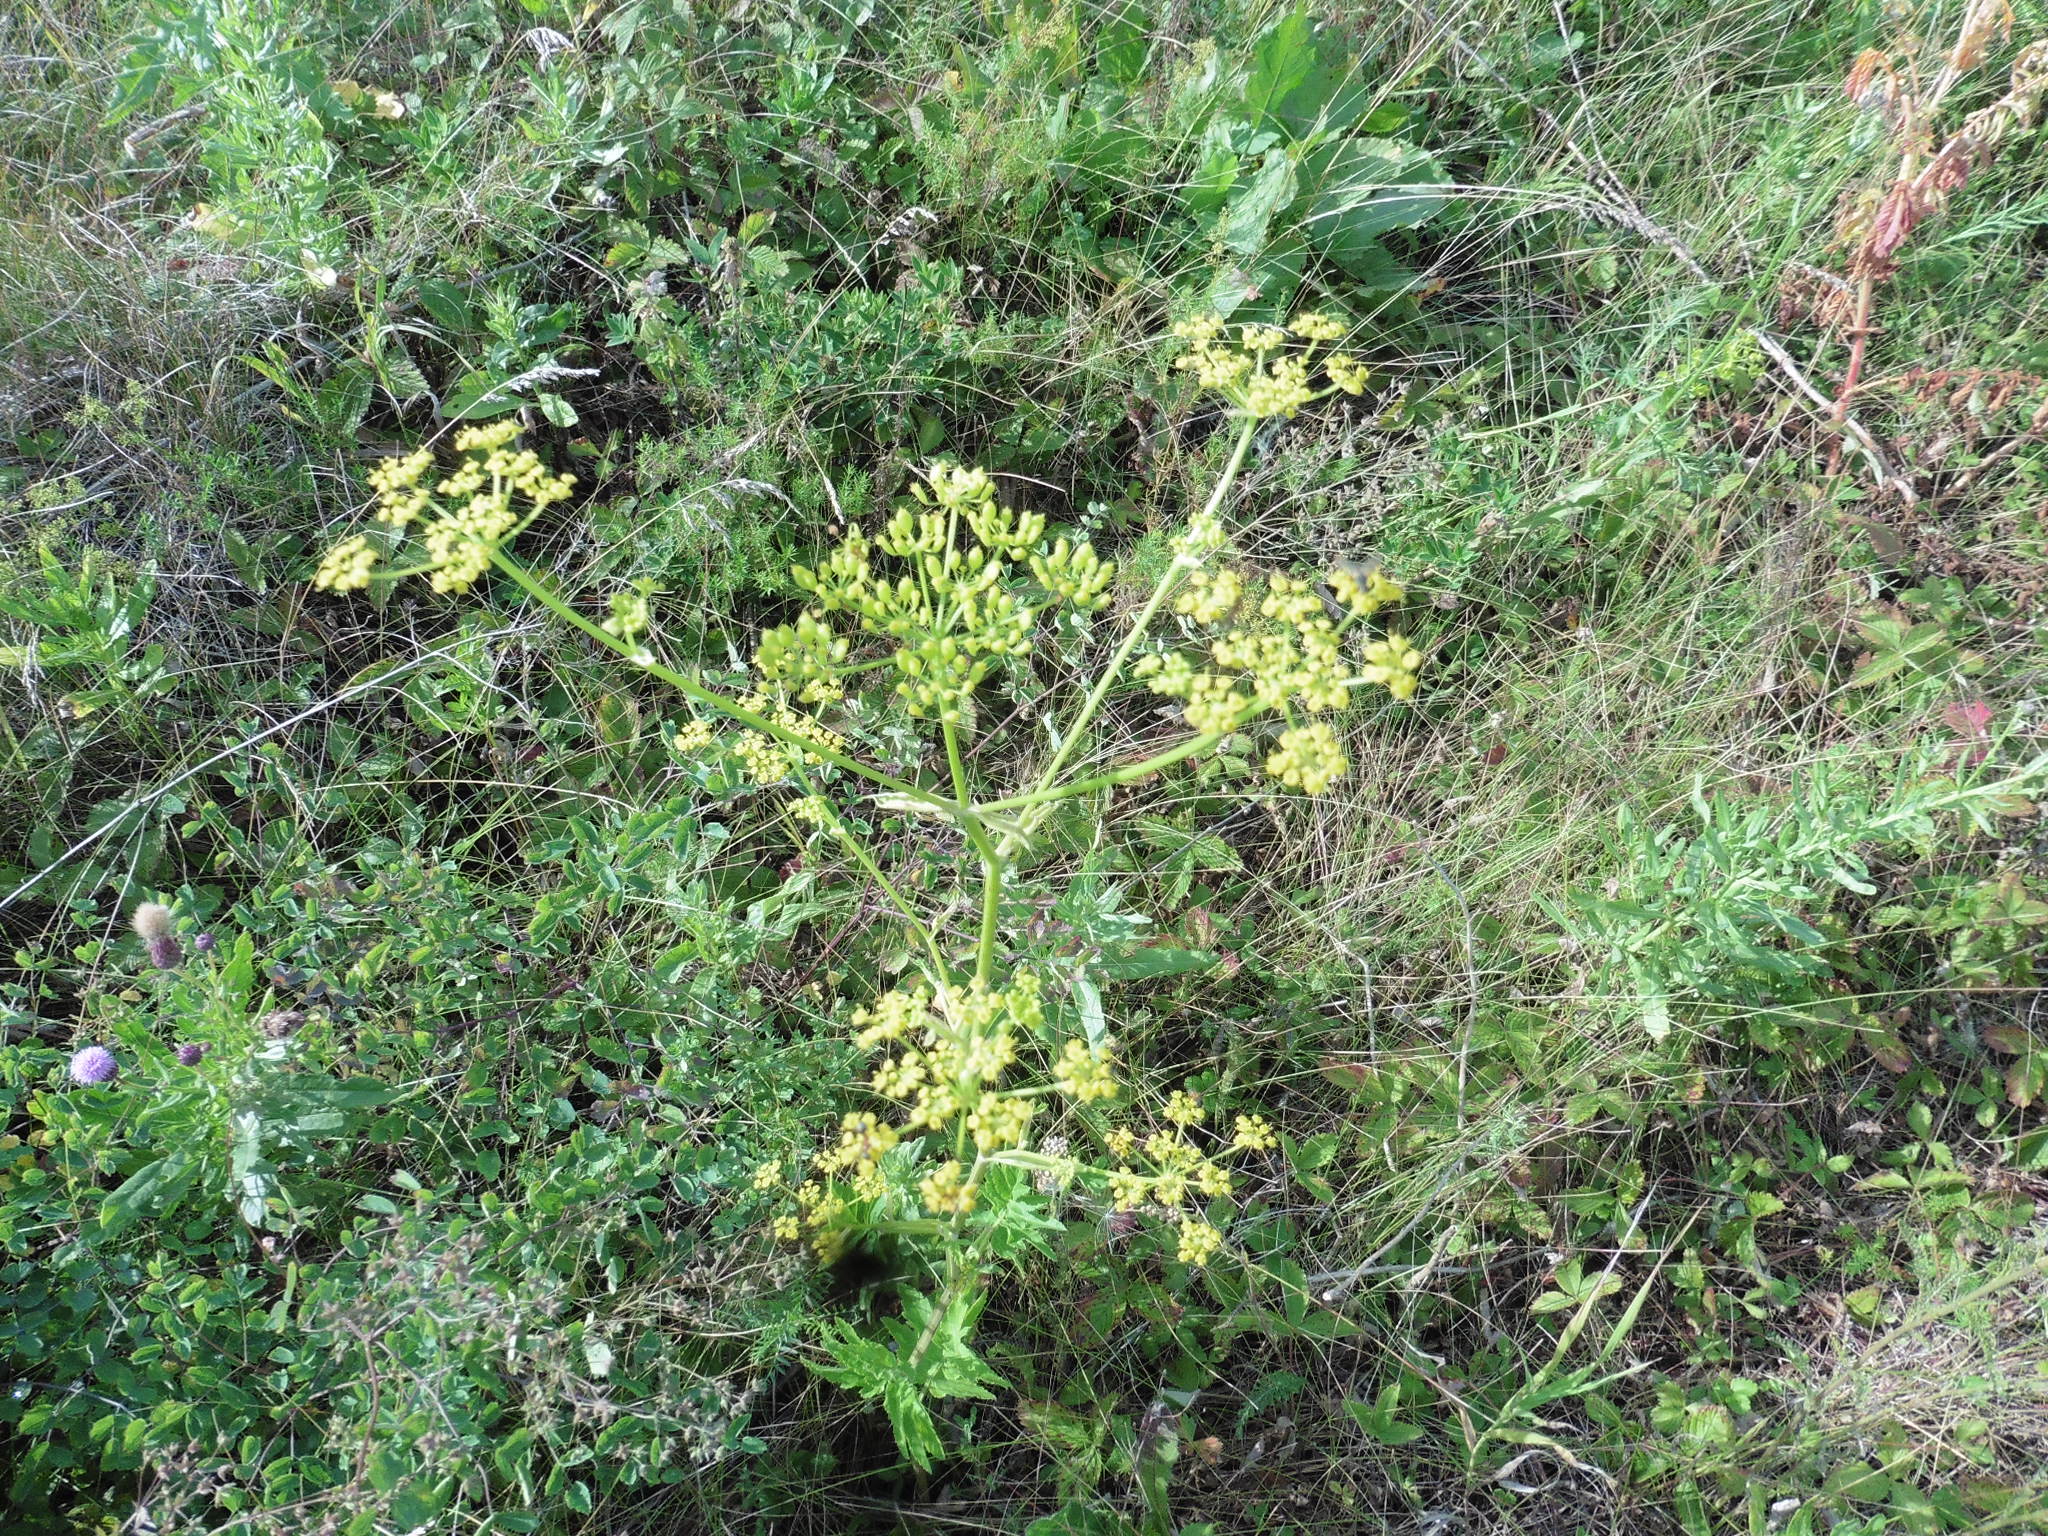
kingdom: Plantae
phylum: Tracheophyta
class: Magnoliopsida
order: Apiales
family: Apiaceae
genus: Pastinaca
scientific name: Pastinaca sativa
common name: Wild parsnip
